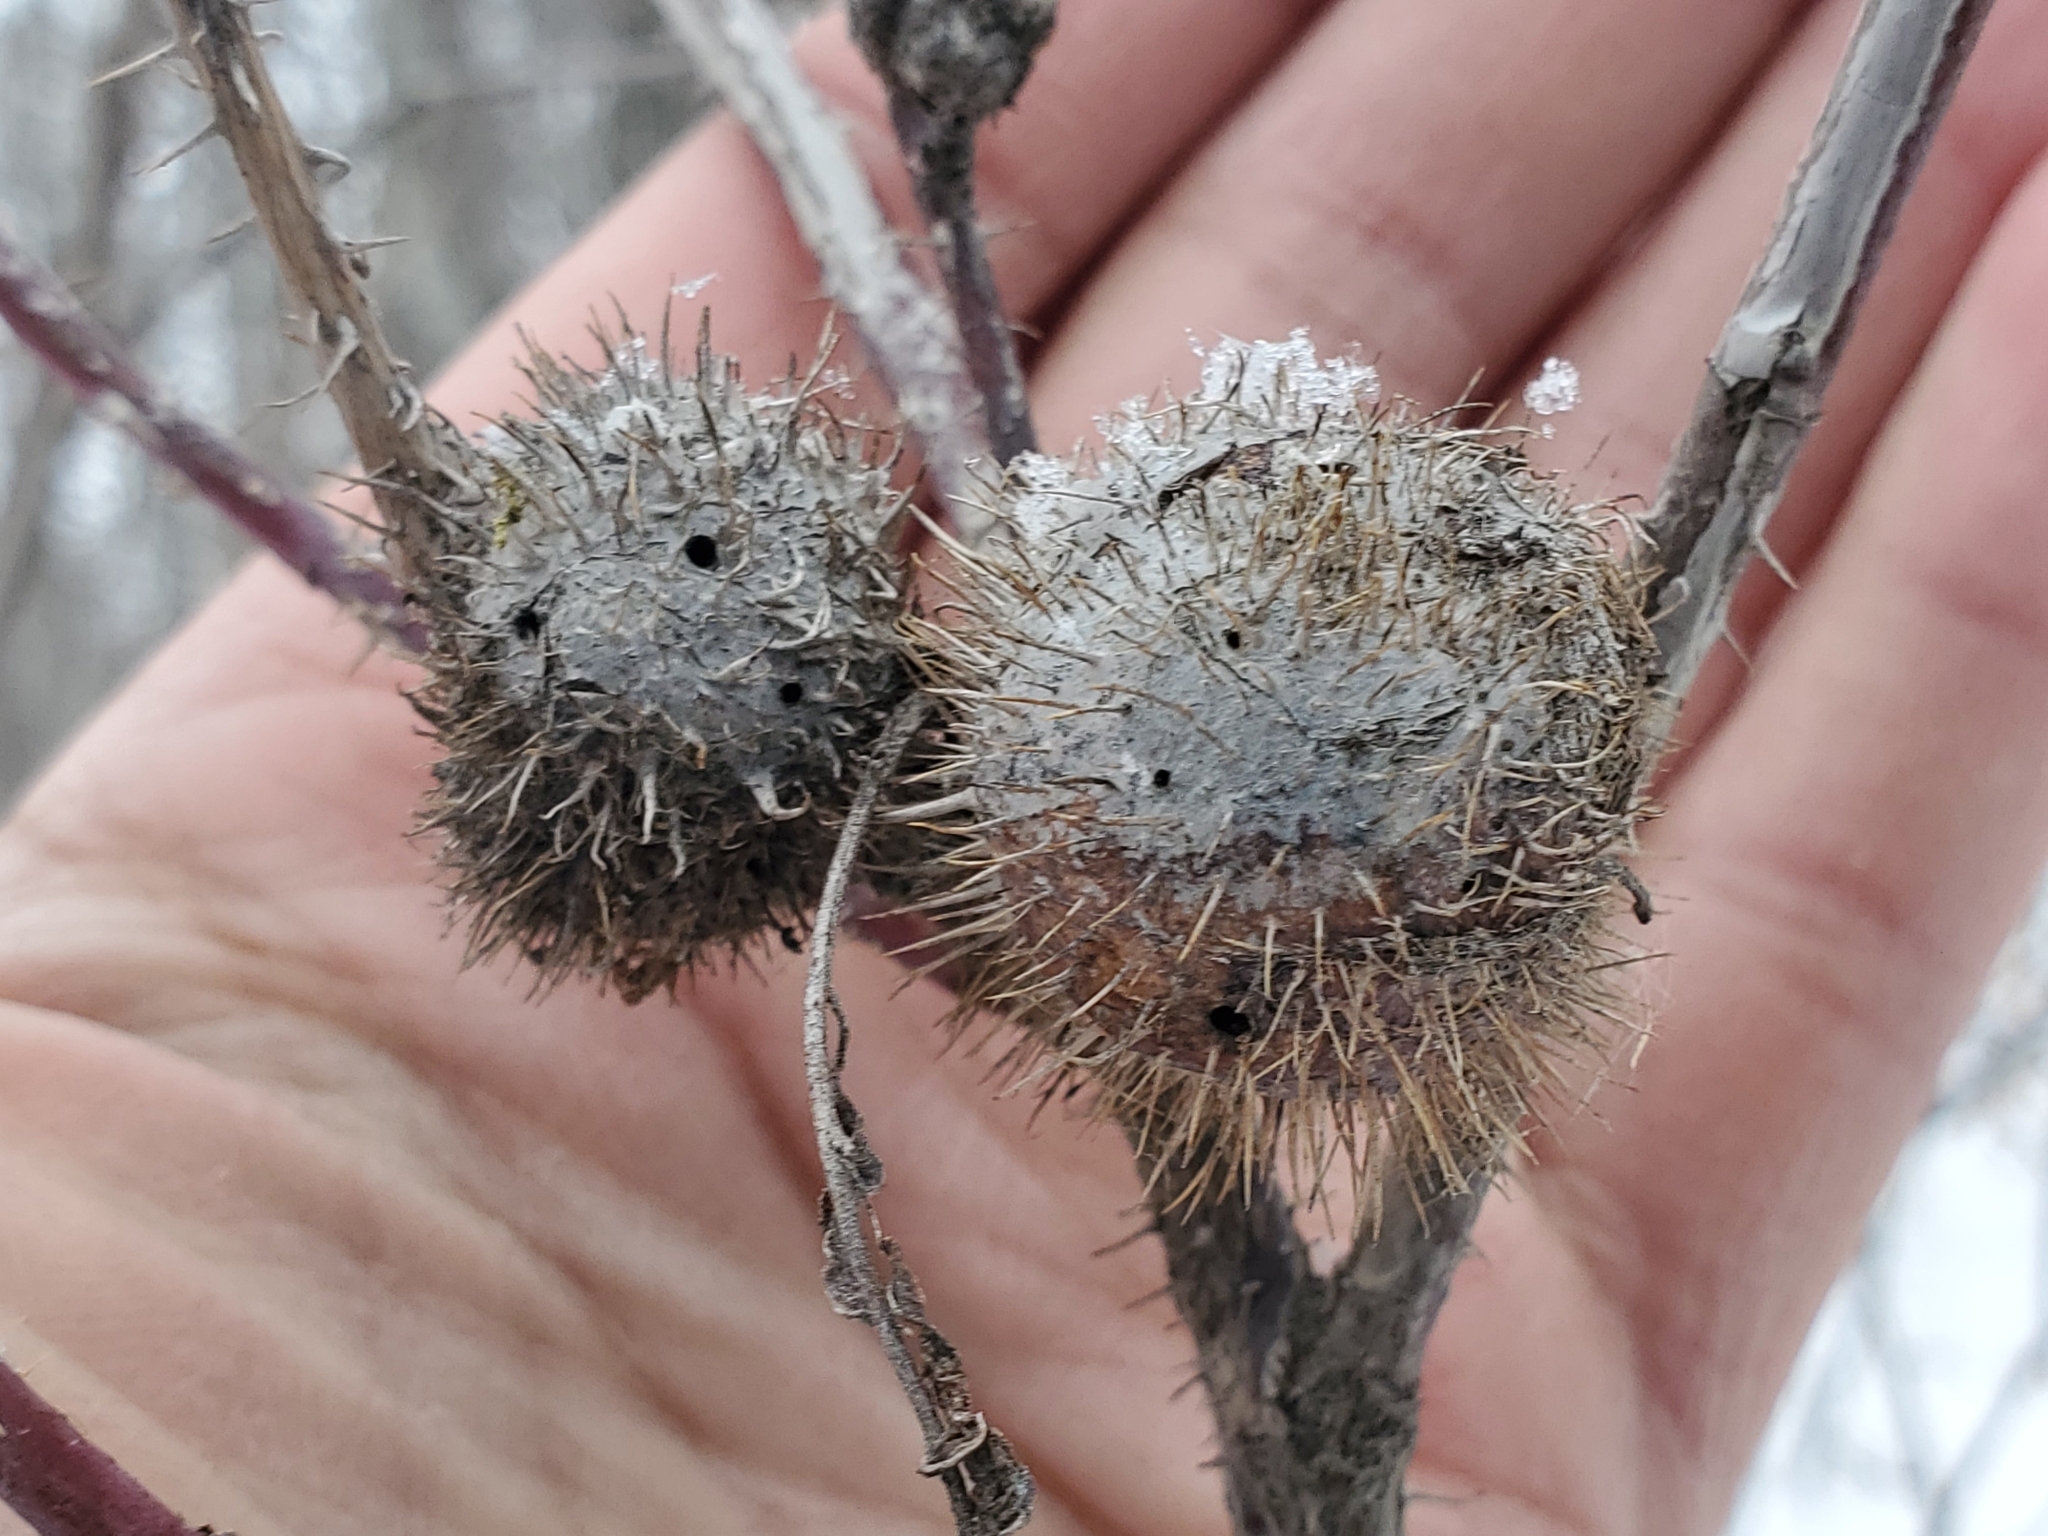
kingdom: Animalia
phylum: Arthropoda
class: Insecta
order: Hymenoptera
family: Cynipidae
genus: Diplolepis
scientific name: Diplolepis spinosa
